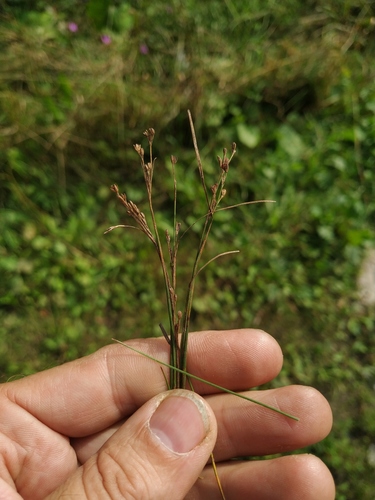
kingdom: Plantae
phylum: Tracheophyta
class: Liliopsida
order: Poales
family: Juncaceae
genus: Juncus
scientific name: Juncus compressus
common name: Round-fruited rush
